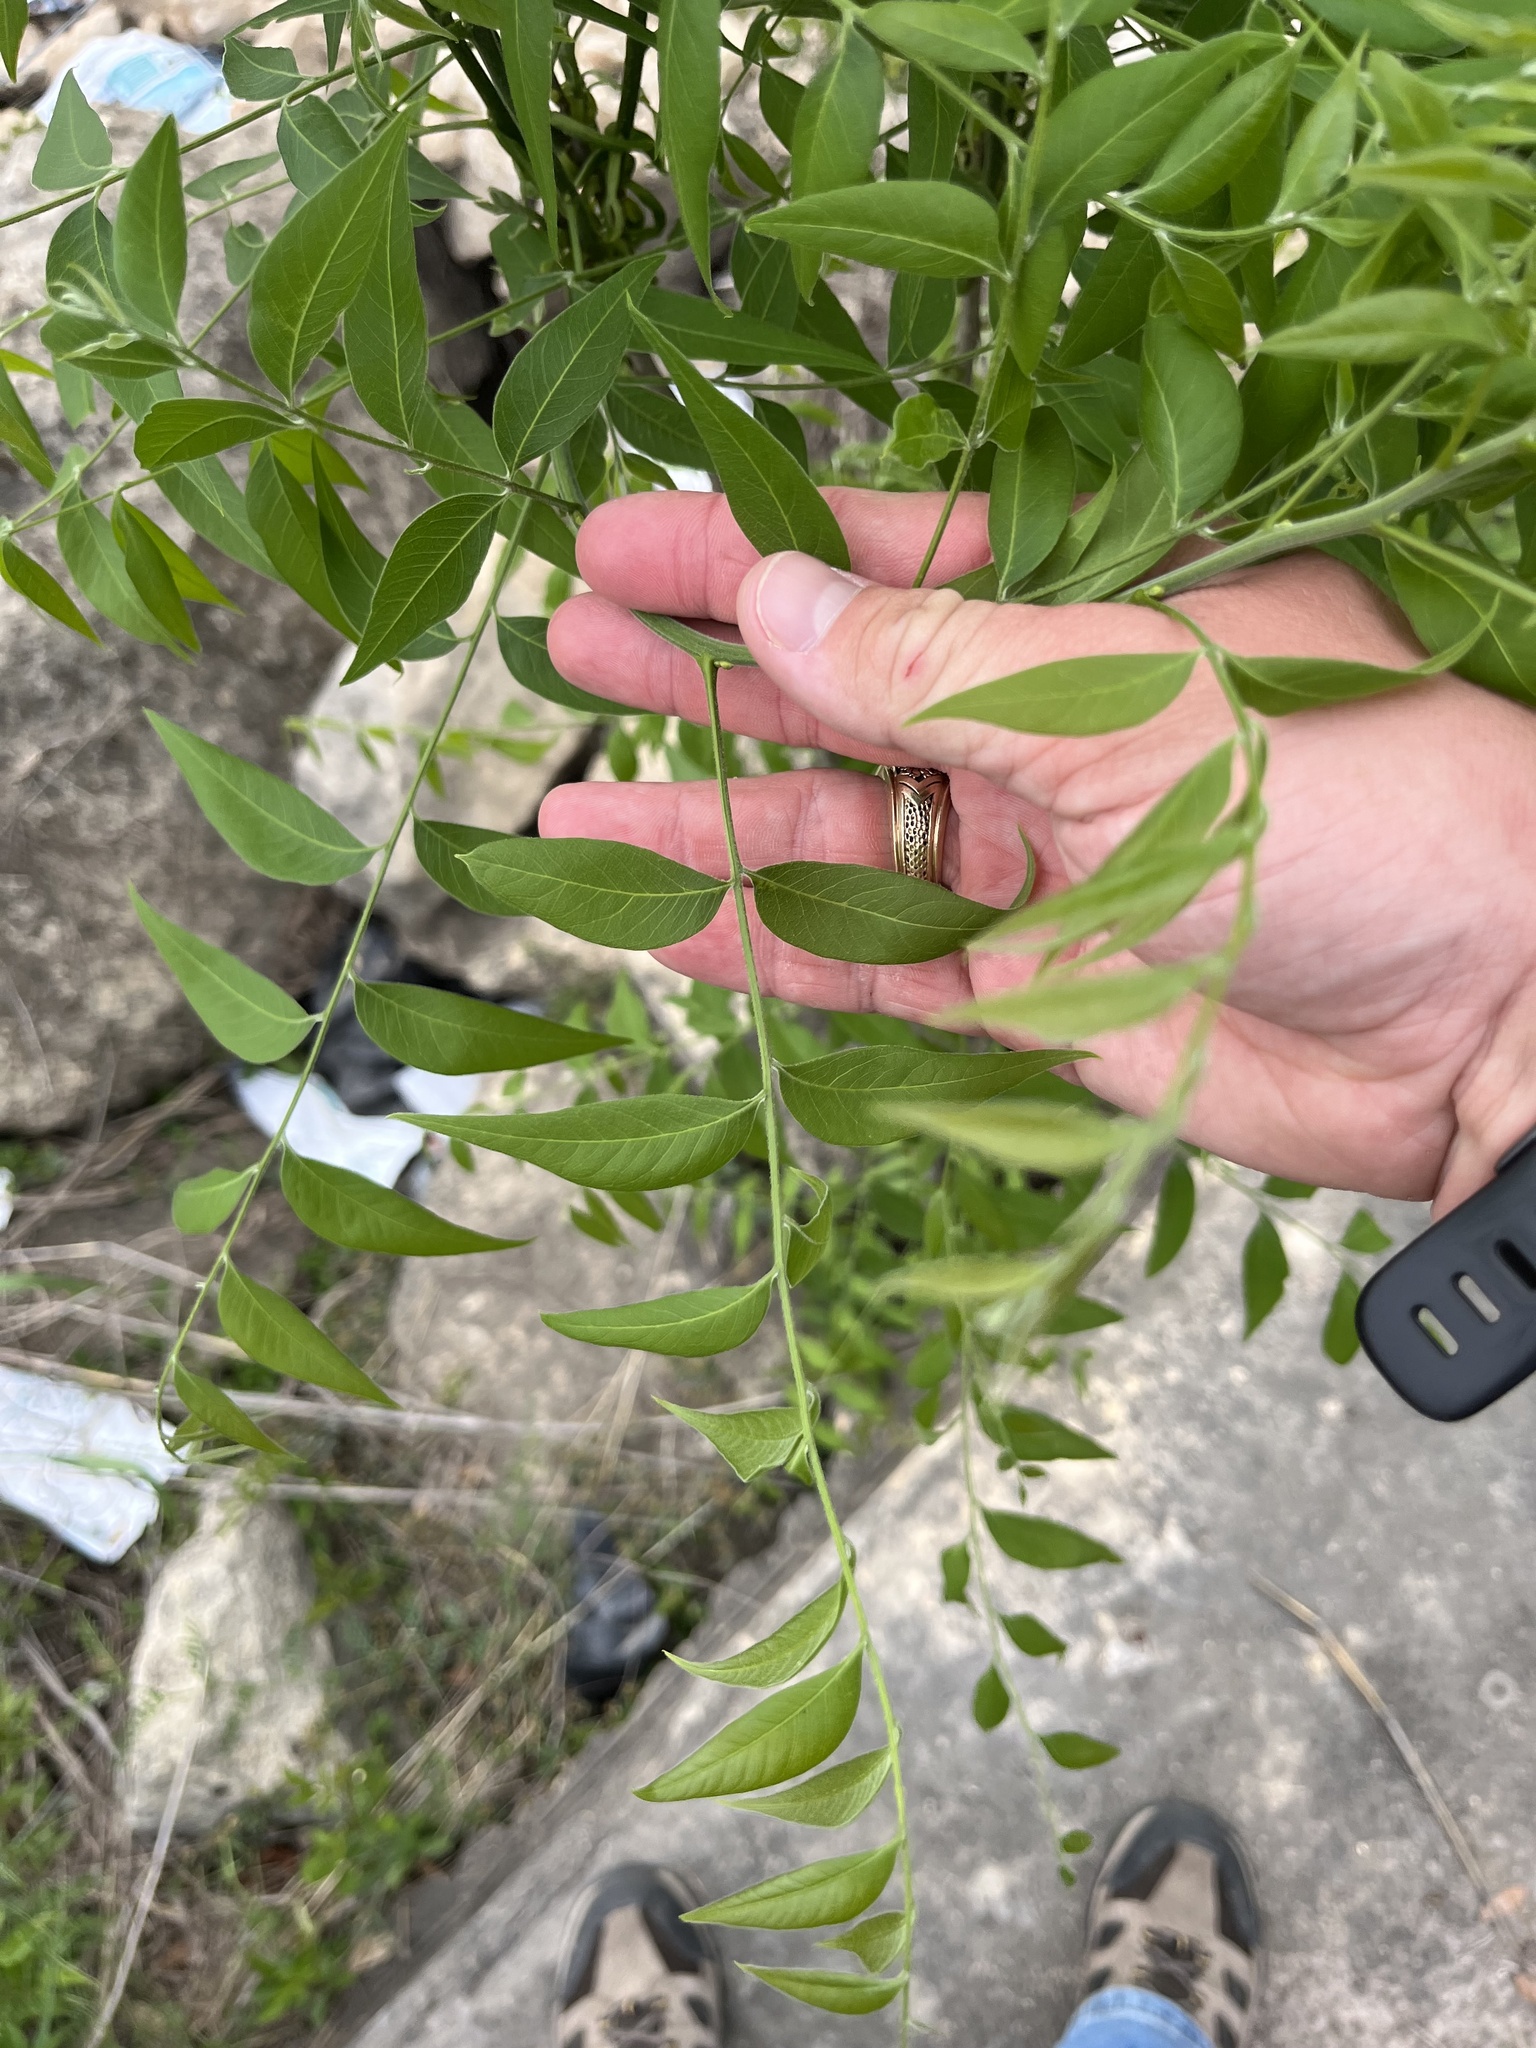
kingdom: Plantae
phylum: Tracheophyta
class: Magnoliopsida
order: Sapindales
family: Sapindaceae
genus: Sapindus
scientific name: Sapindus drummondii
